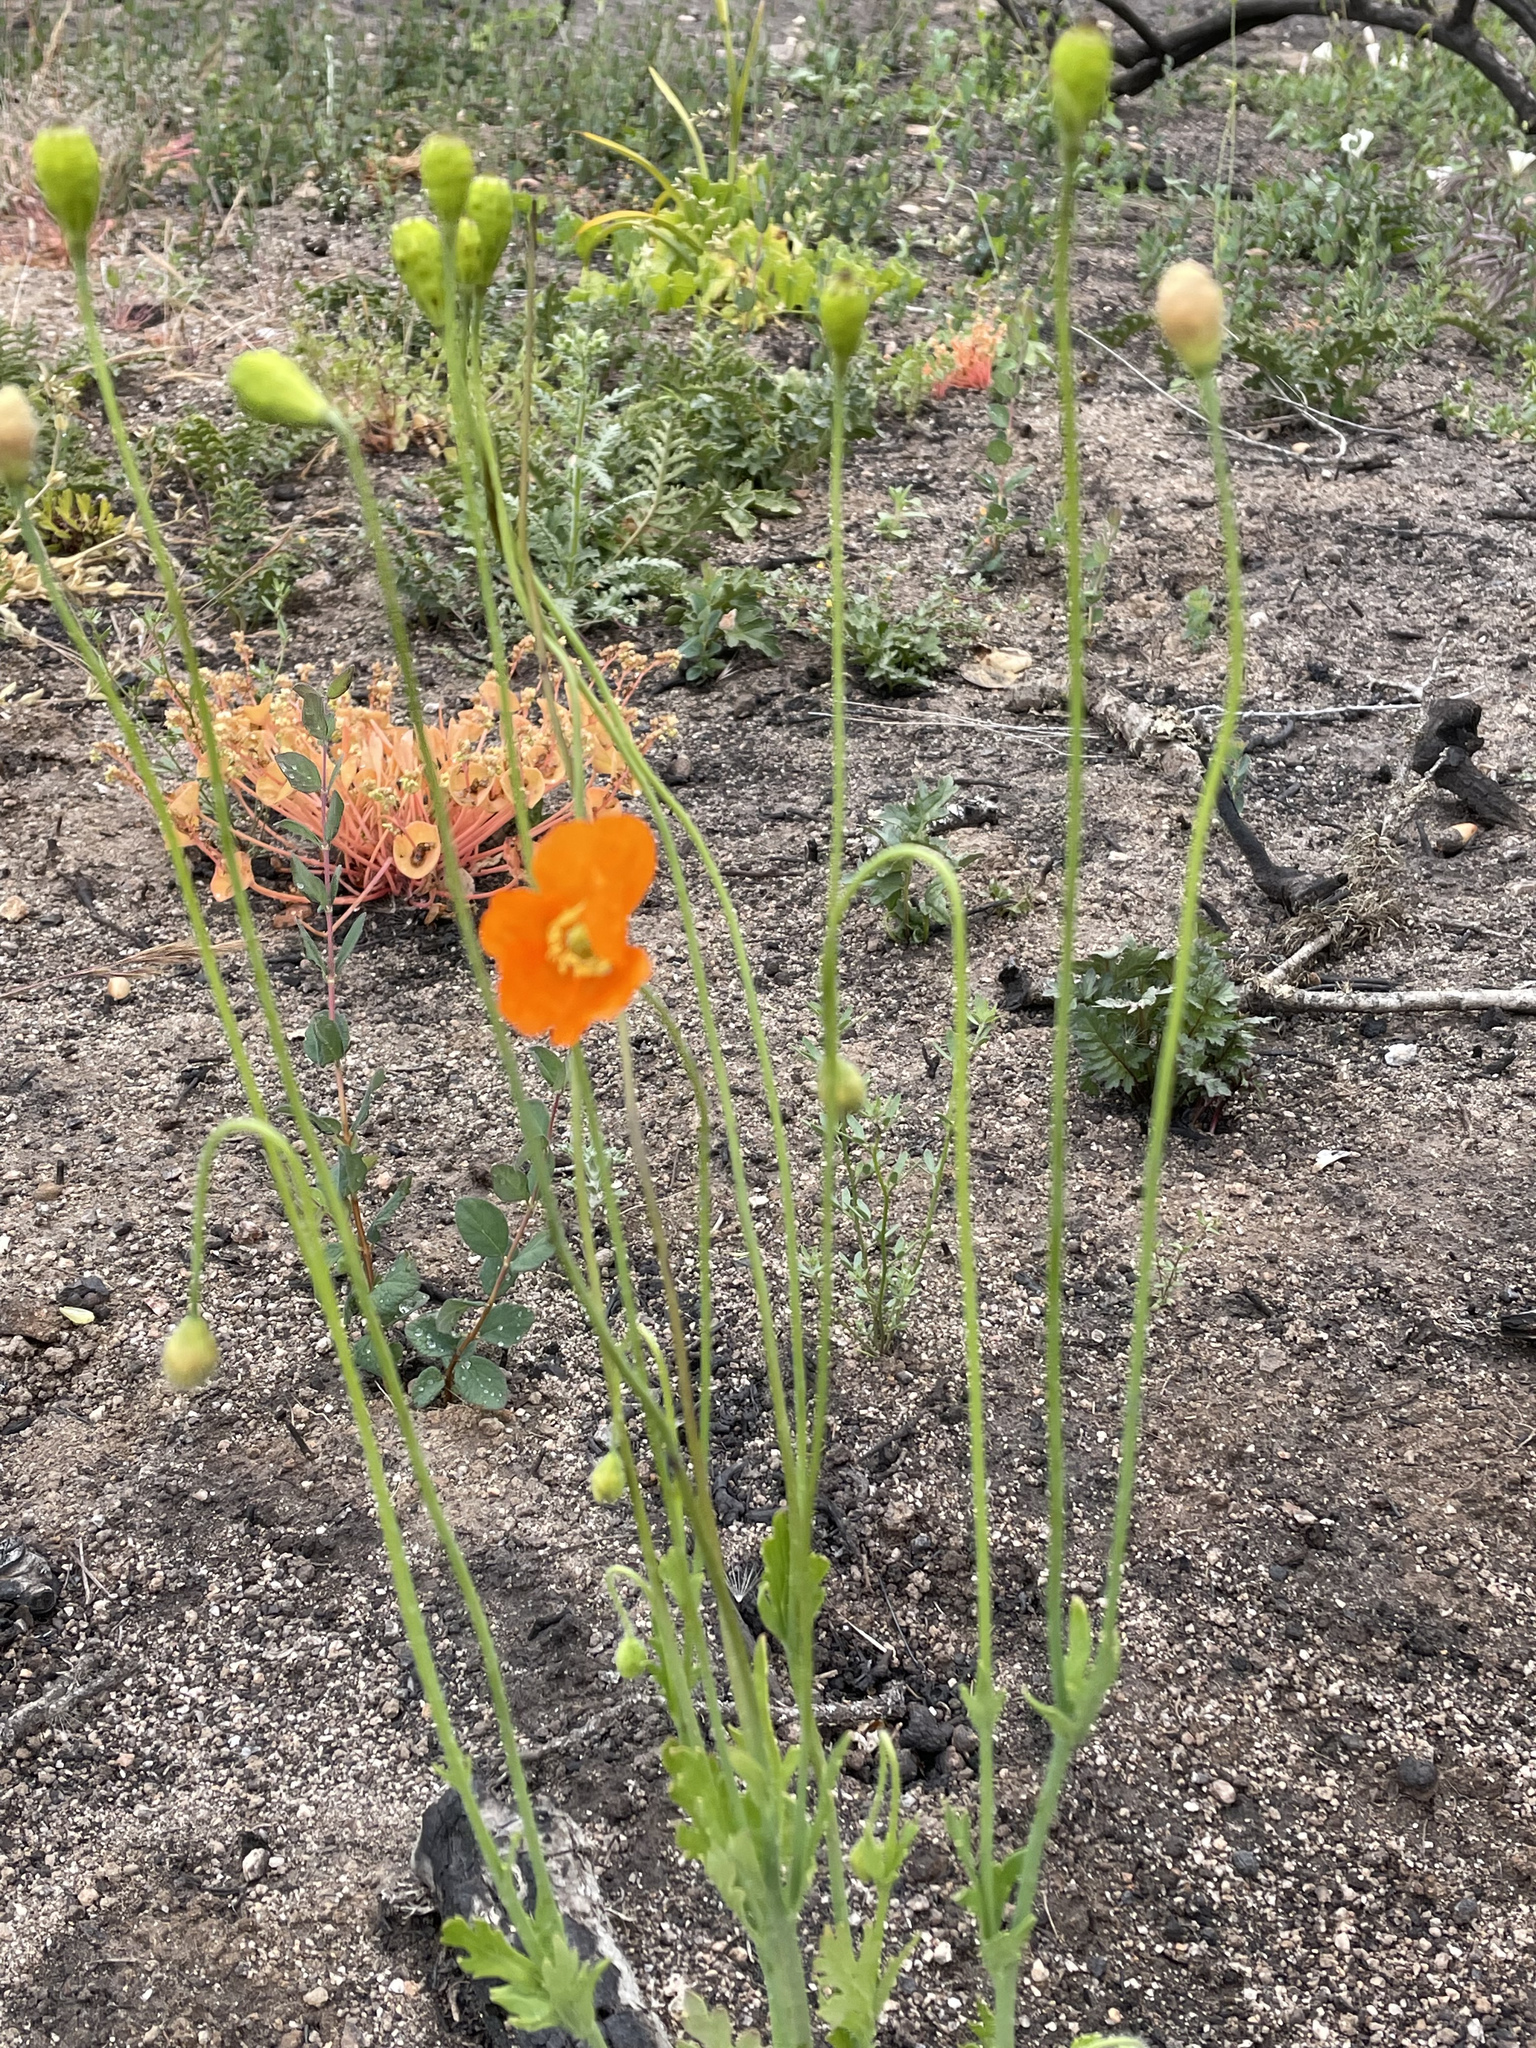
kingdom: Plantae
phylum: Tracheophyta
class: Magnoliopsida
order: Ranunculales
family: Papaveraceae
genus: Papaver
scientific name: Papaver californicum
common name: Fire poppy
